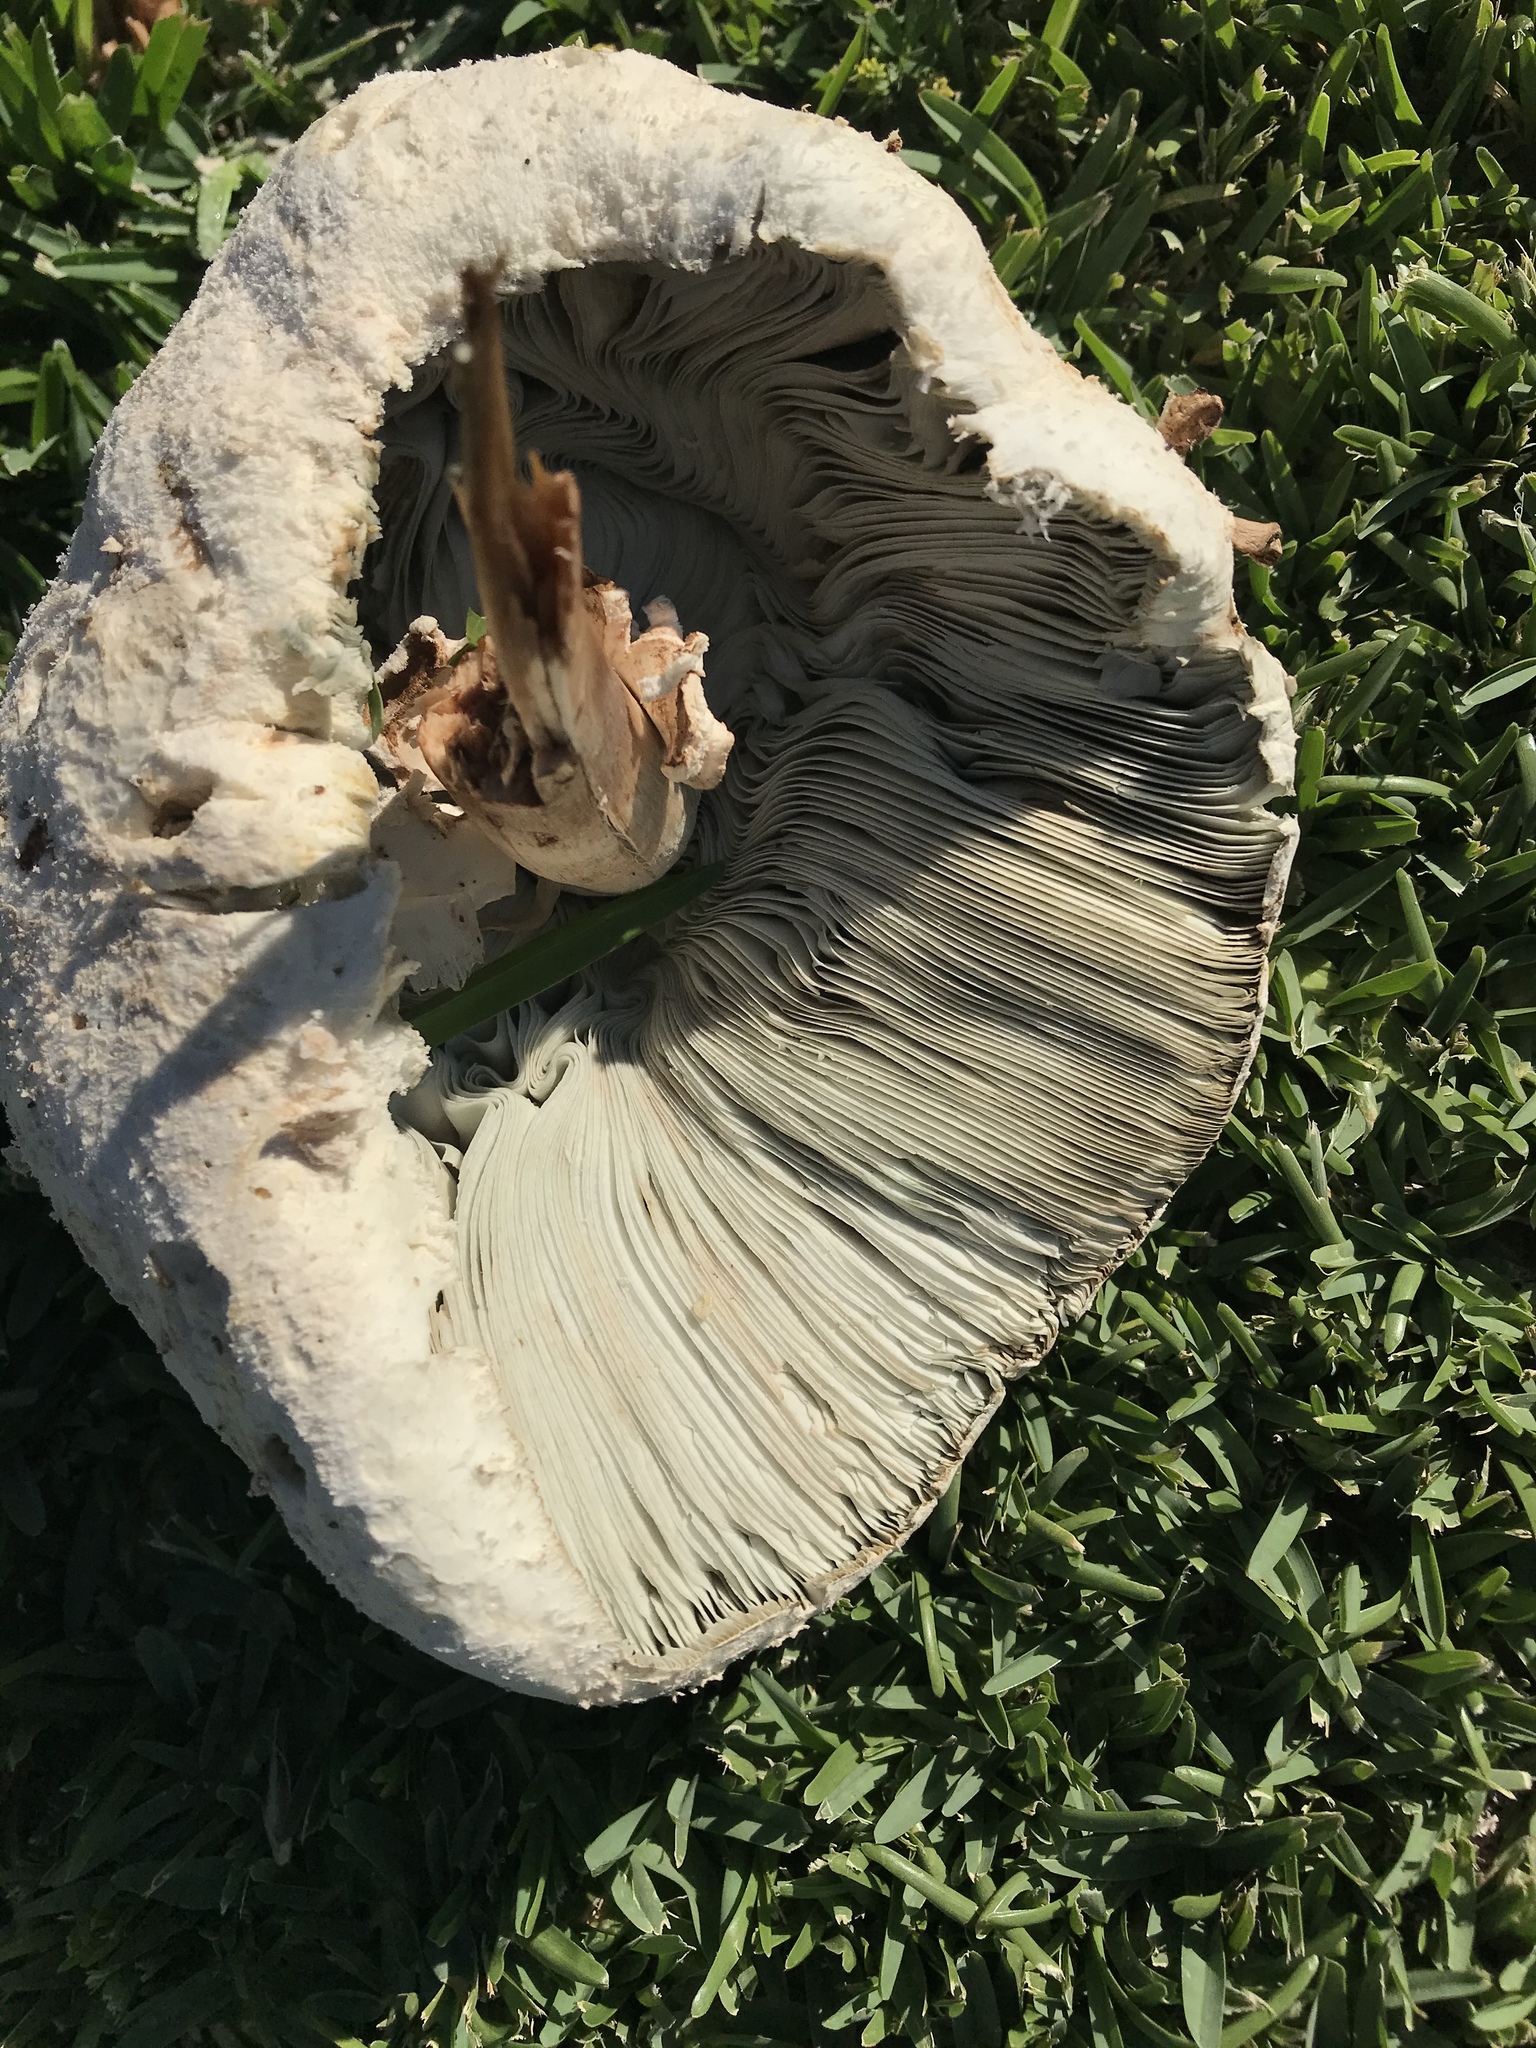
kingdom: Fungi
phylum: Basidiomycota
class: Agaricomycetes
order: Agaricales
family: Agaricaceae
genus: Chlorophyllum
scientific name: Chlorophyllum molybdites
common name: False parasol
